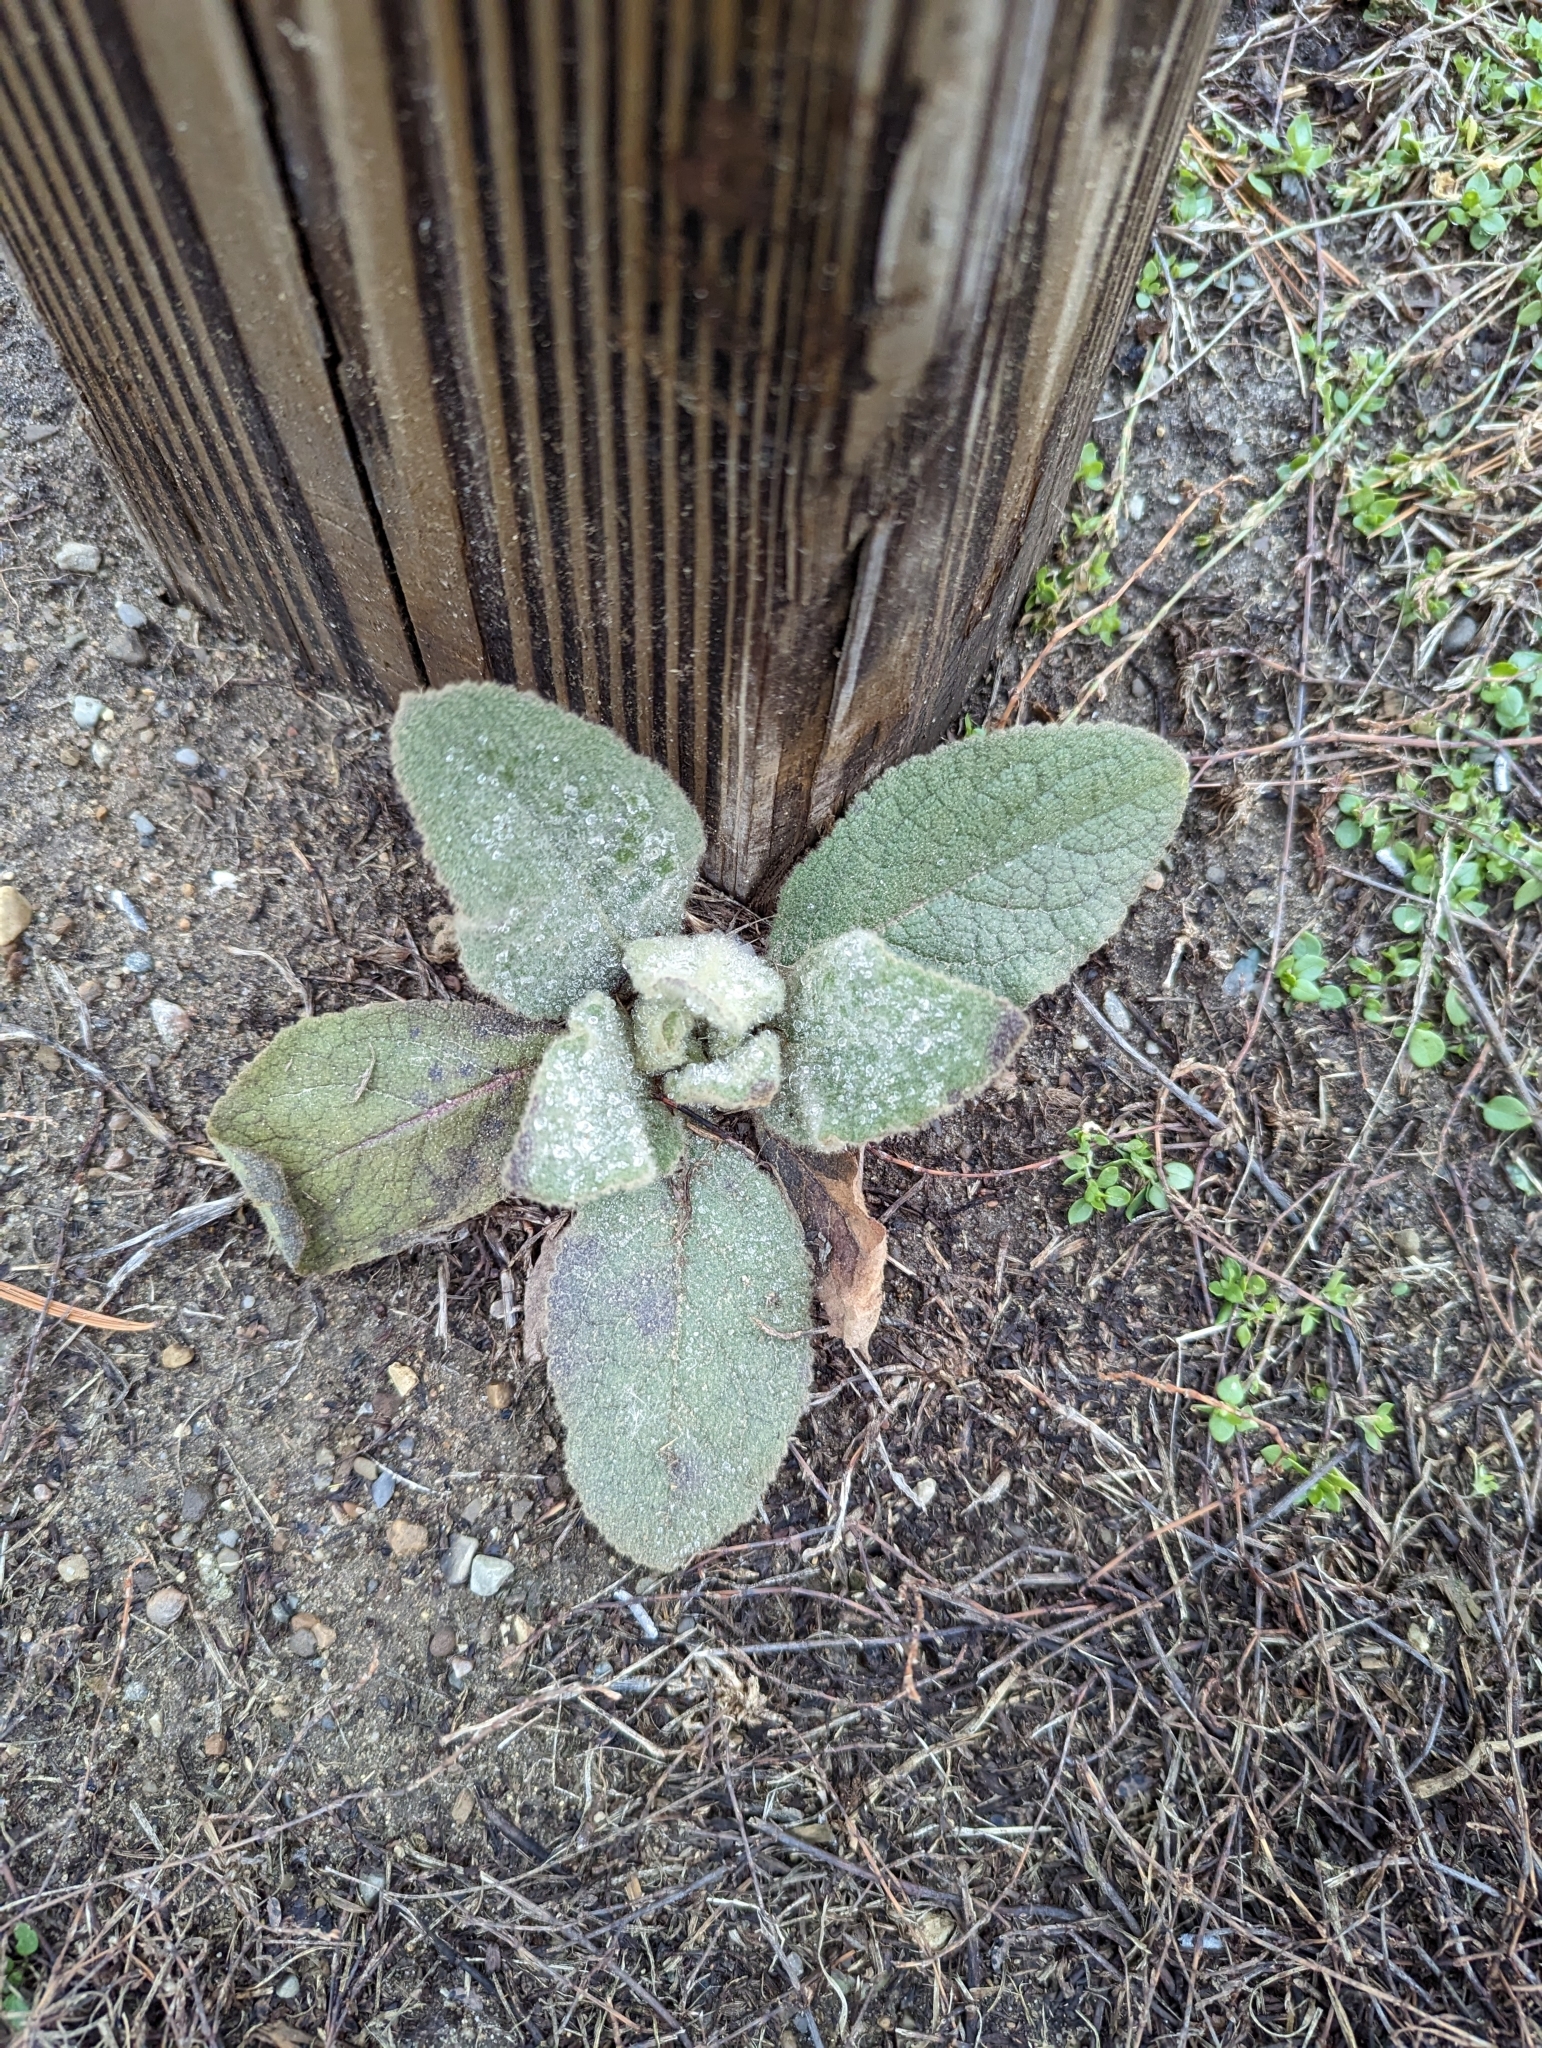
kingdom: Plantae
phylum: Tracheophyta
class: Magnoliopsida
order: Lamiales
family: Scrophulariaceae
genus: Verbascum
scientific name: Verbascum thapsus
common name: Common mullein
